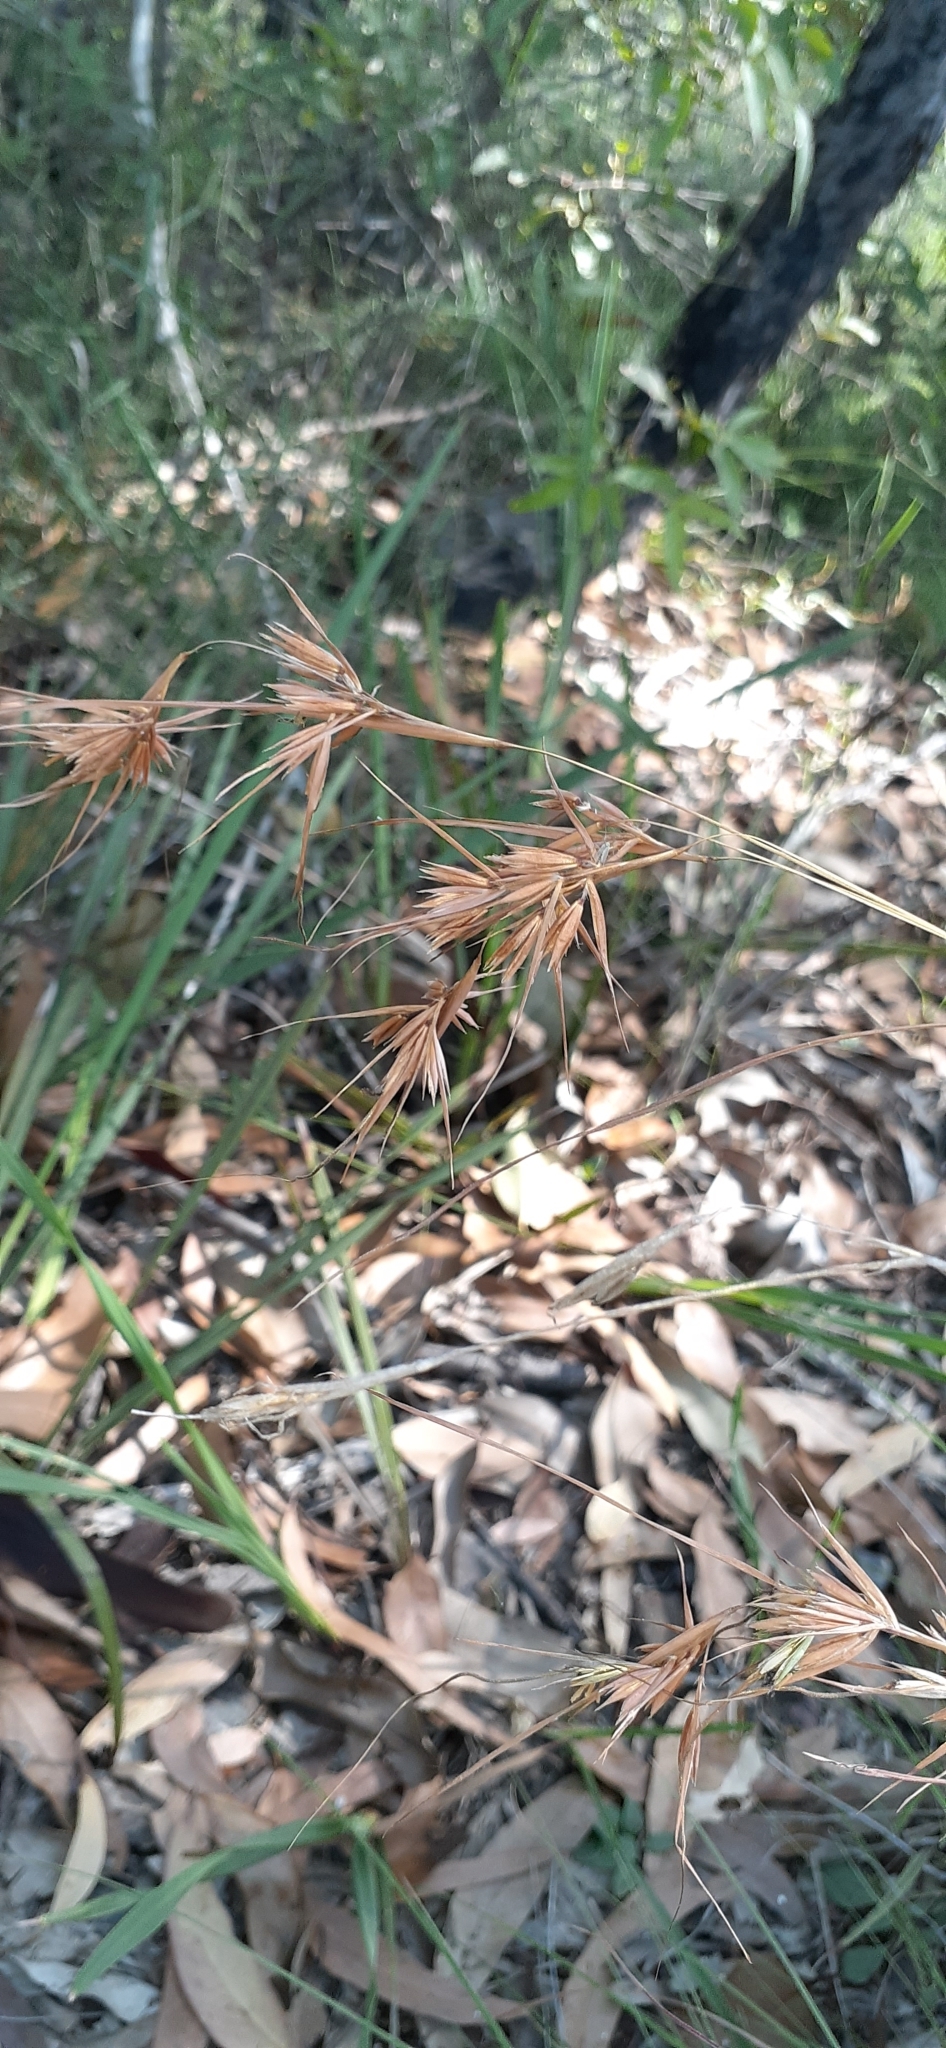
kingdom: Plantae
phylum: Tracheophyta
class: Liliopsida
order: Poales
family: Poaceae
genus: Themeda
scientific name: Themeda triandra
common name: Kangaroo grass
